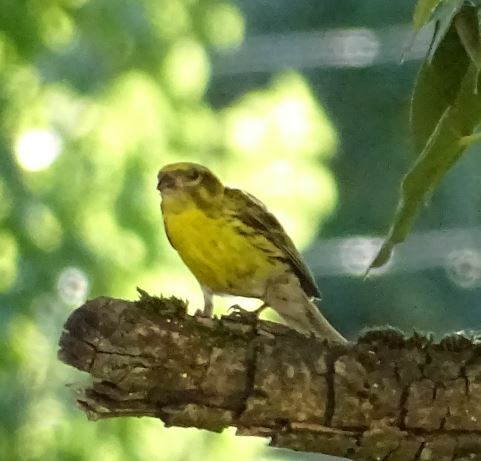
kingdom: Animalia
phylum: Chordata
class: Aves
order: Passeriformes
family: Fringillidae
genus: Serinus
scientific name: Serinus serinus
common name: European serin
